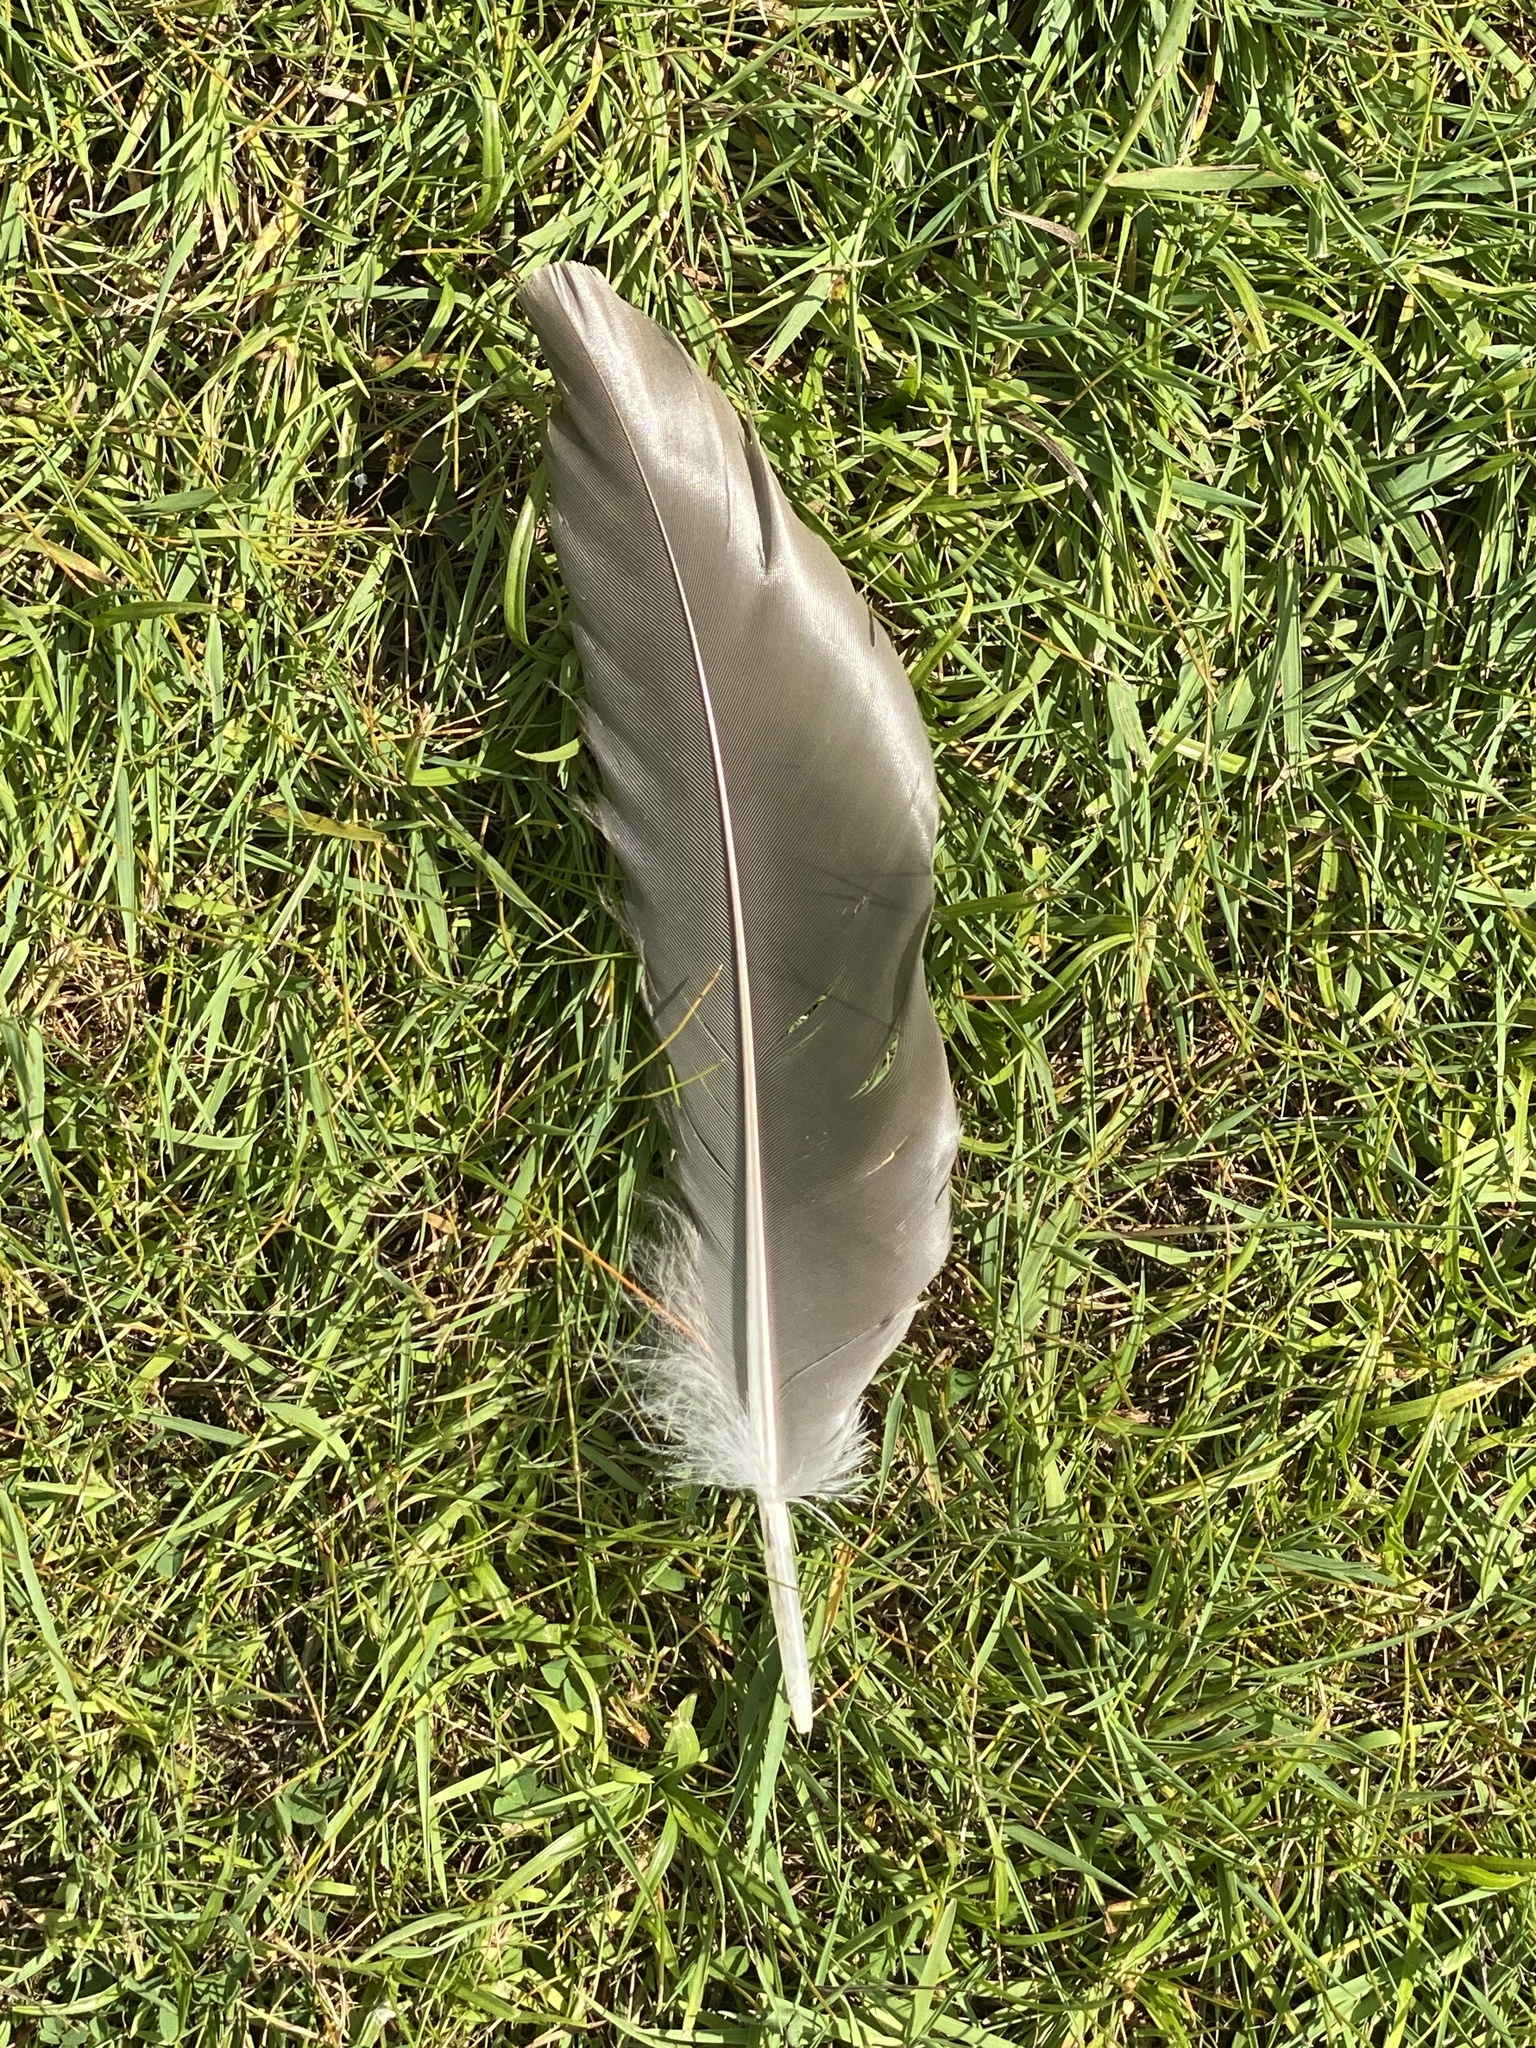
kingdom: Animalia
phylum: Chordata
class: Aves
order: Anseriformes
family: Anatidae
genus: Branta
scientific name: Branta canadensis
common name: Canada goose
